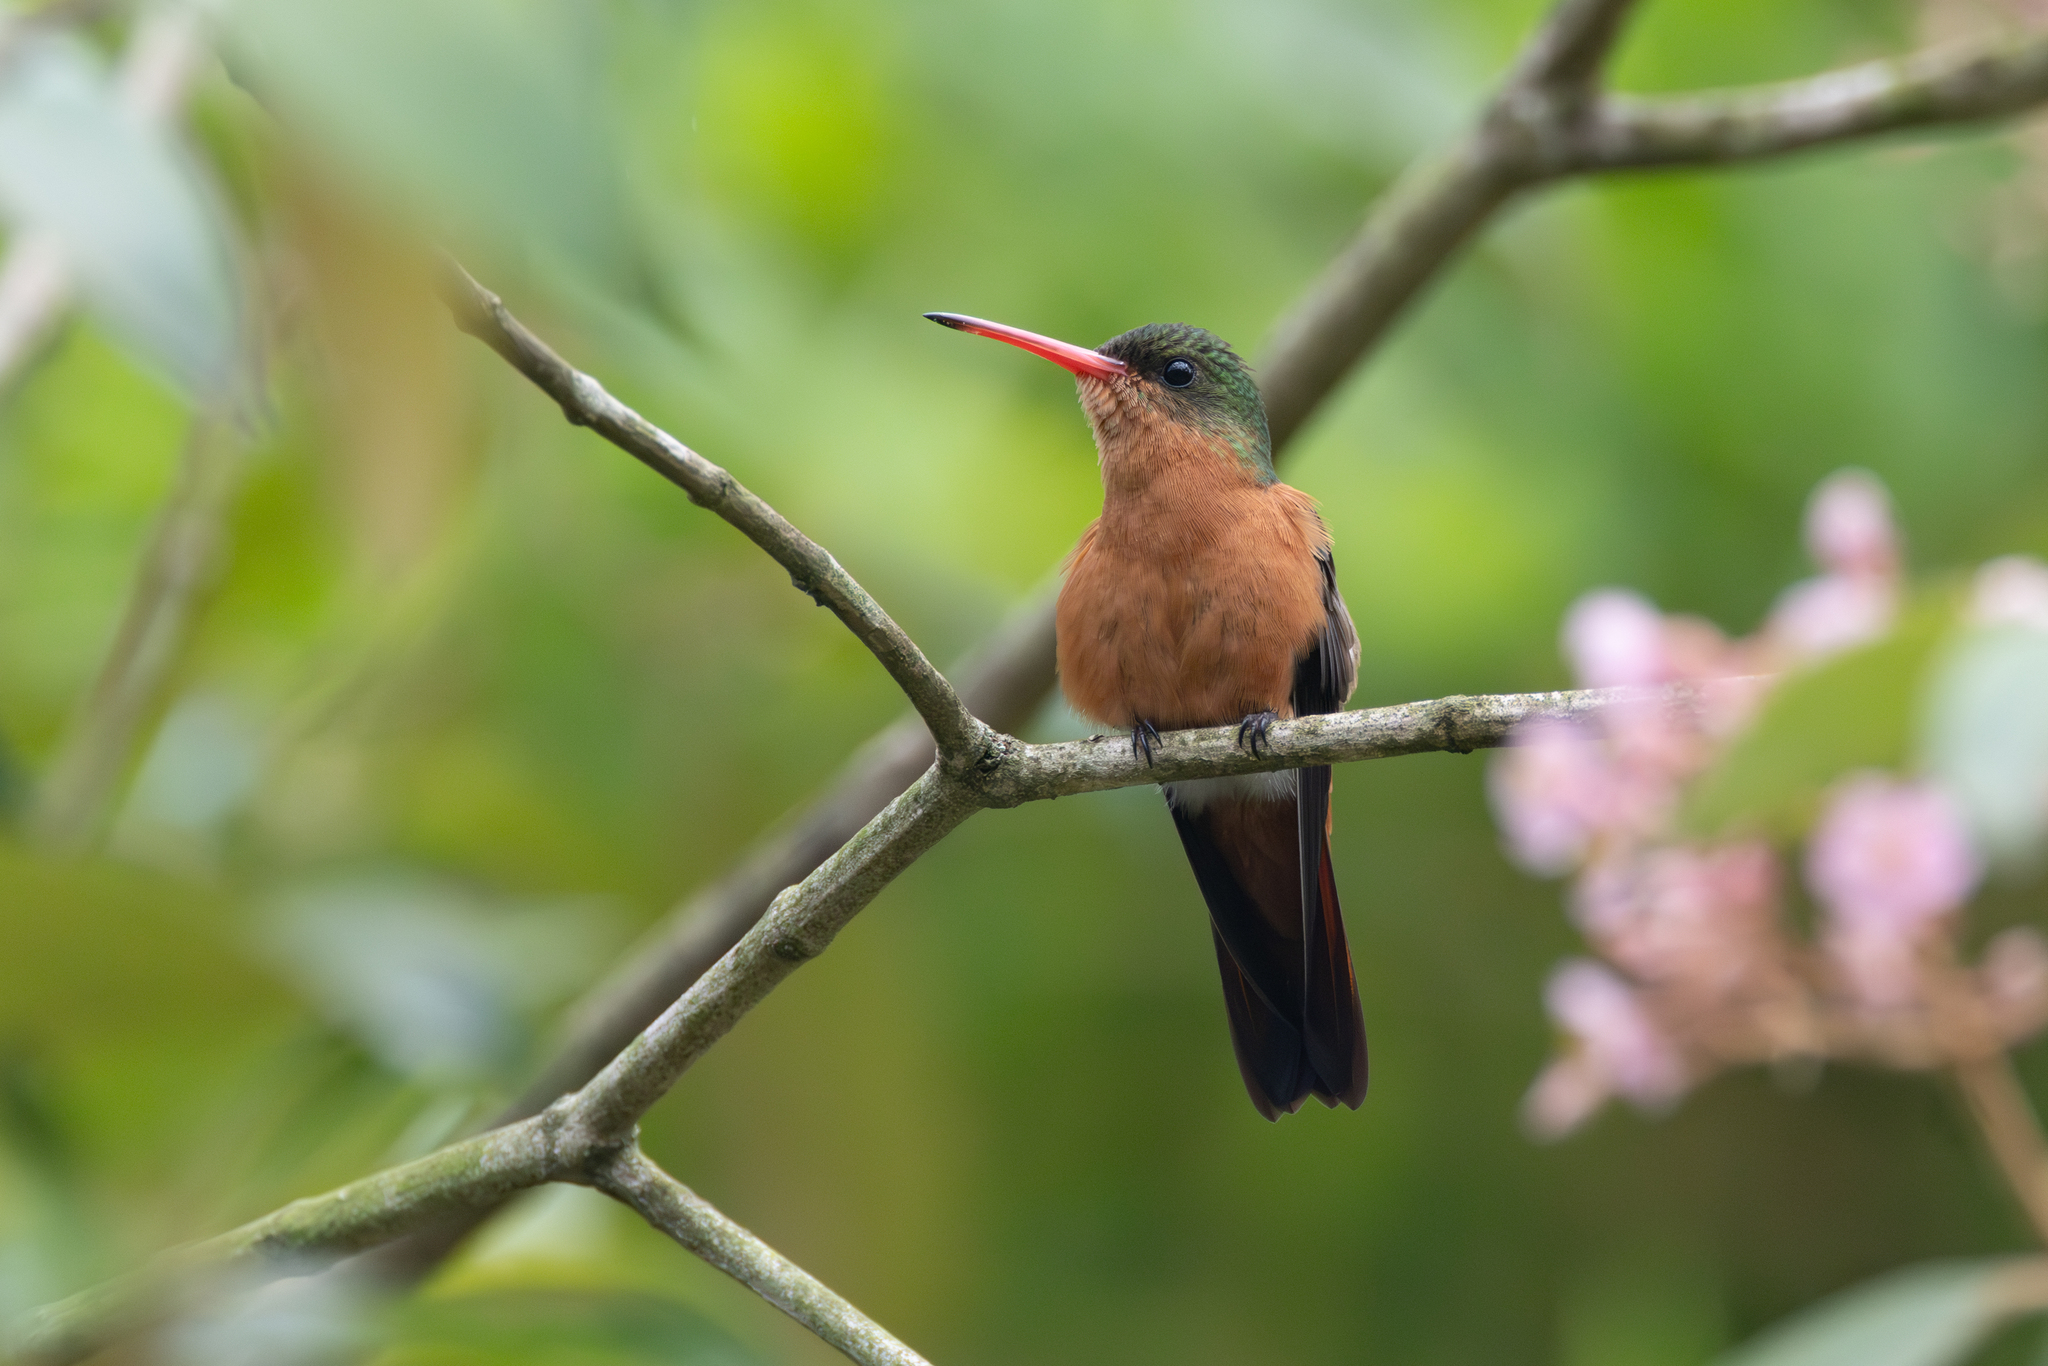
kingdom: Animalia
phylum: Chordata
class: Aves
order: Apodiformes
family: Trochilidae
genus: Amazilia
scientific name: Amazilia rutila
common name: Cinnamon hummingbird
